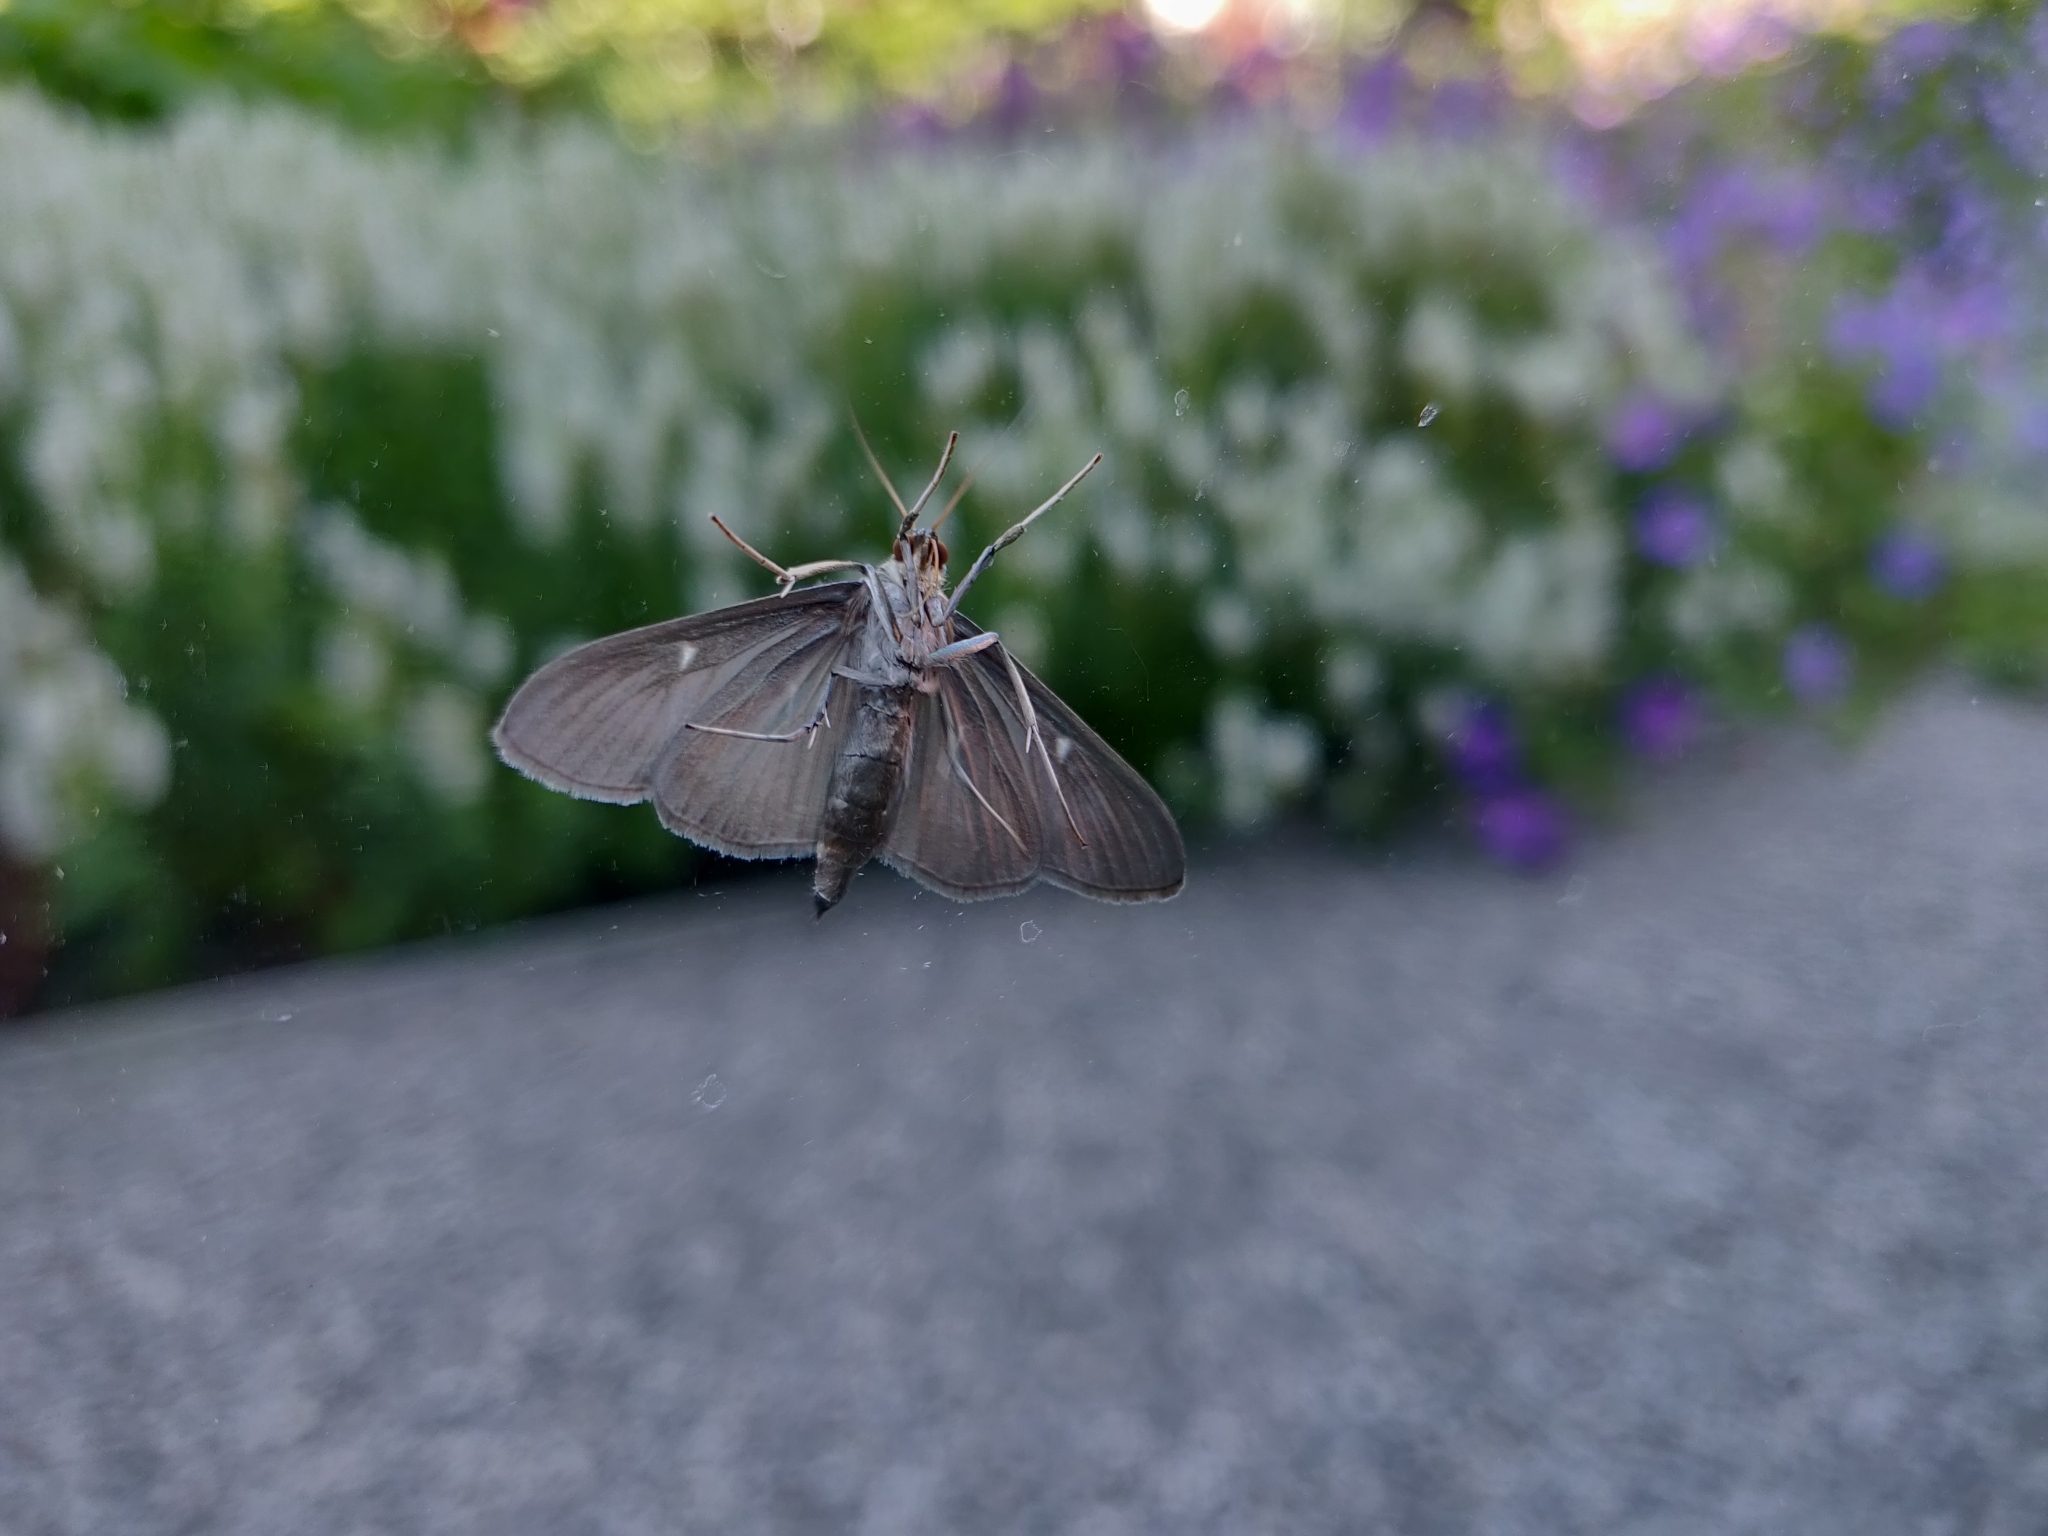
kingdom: Animalia
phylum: Arthropoda
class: Insecta
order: Lepidoptera
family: Crambidae
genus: Cydalima
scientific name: Cydalima perspectalis
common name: Box tree moth
